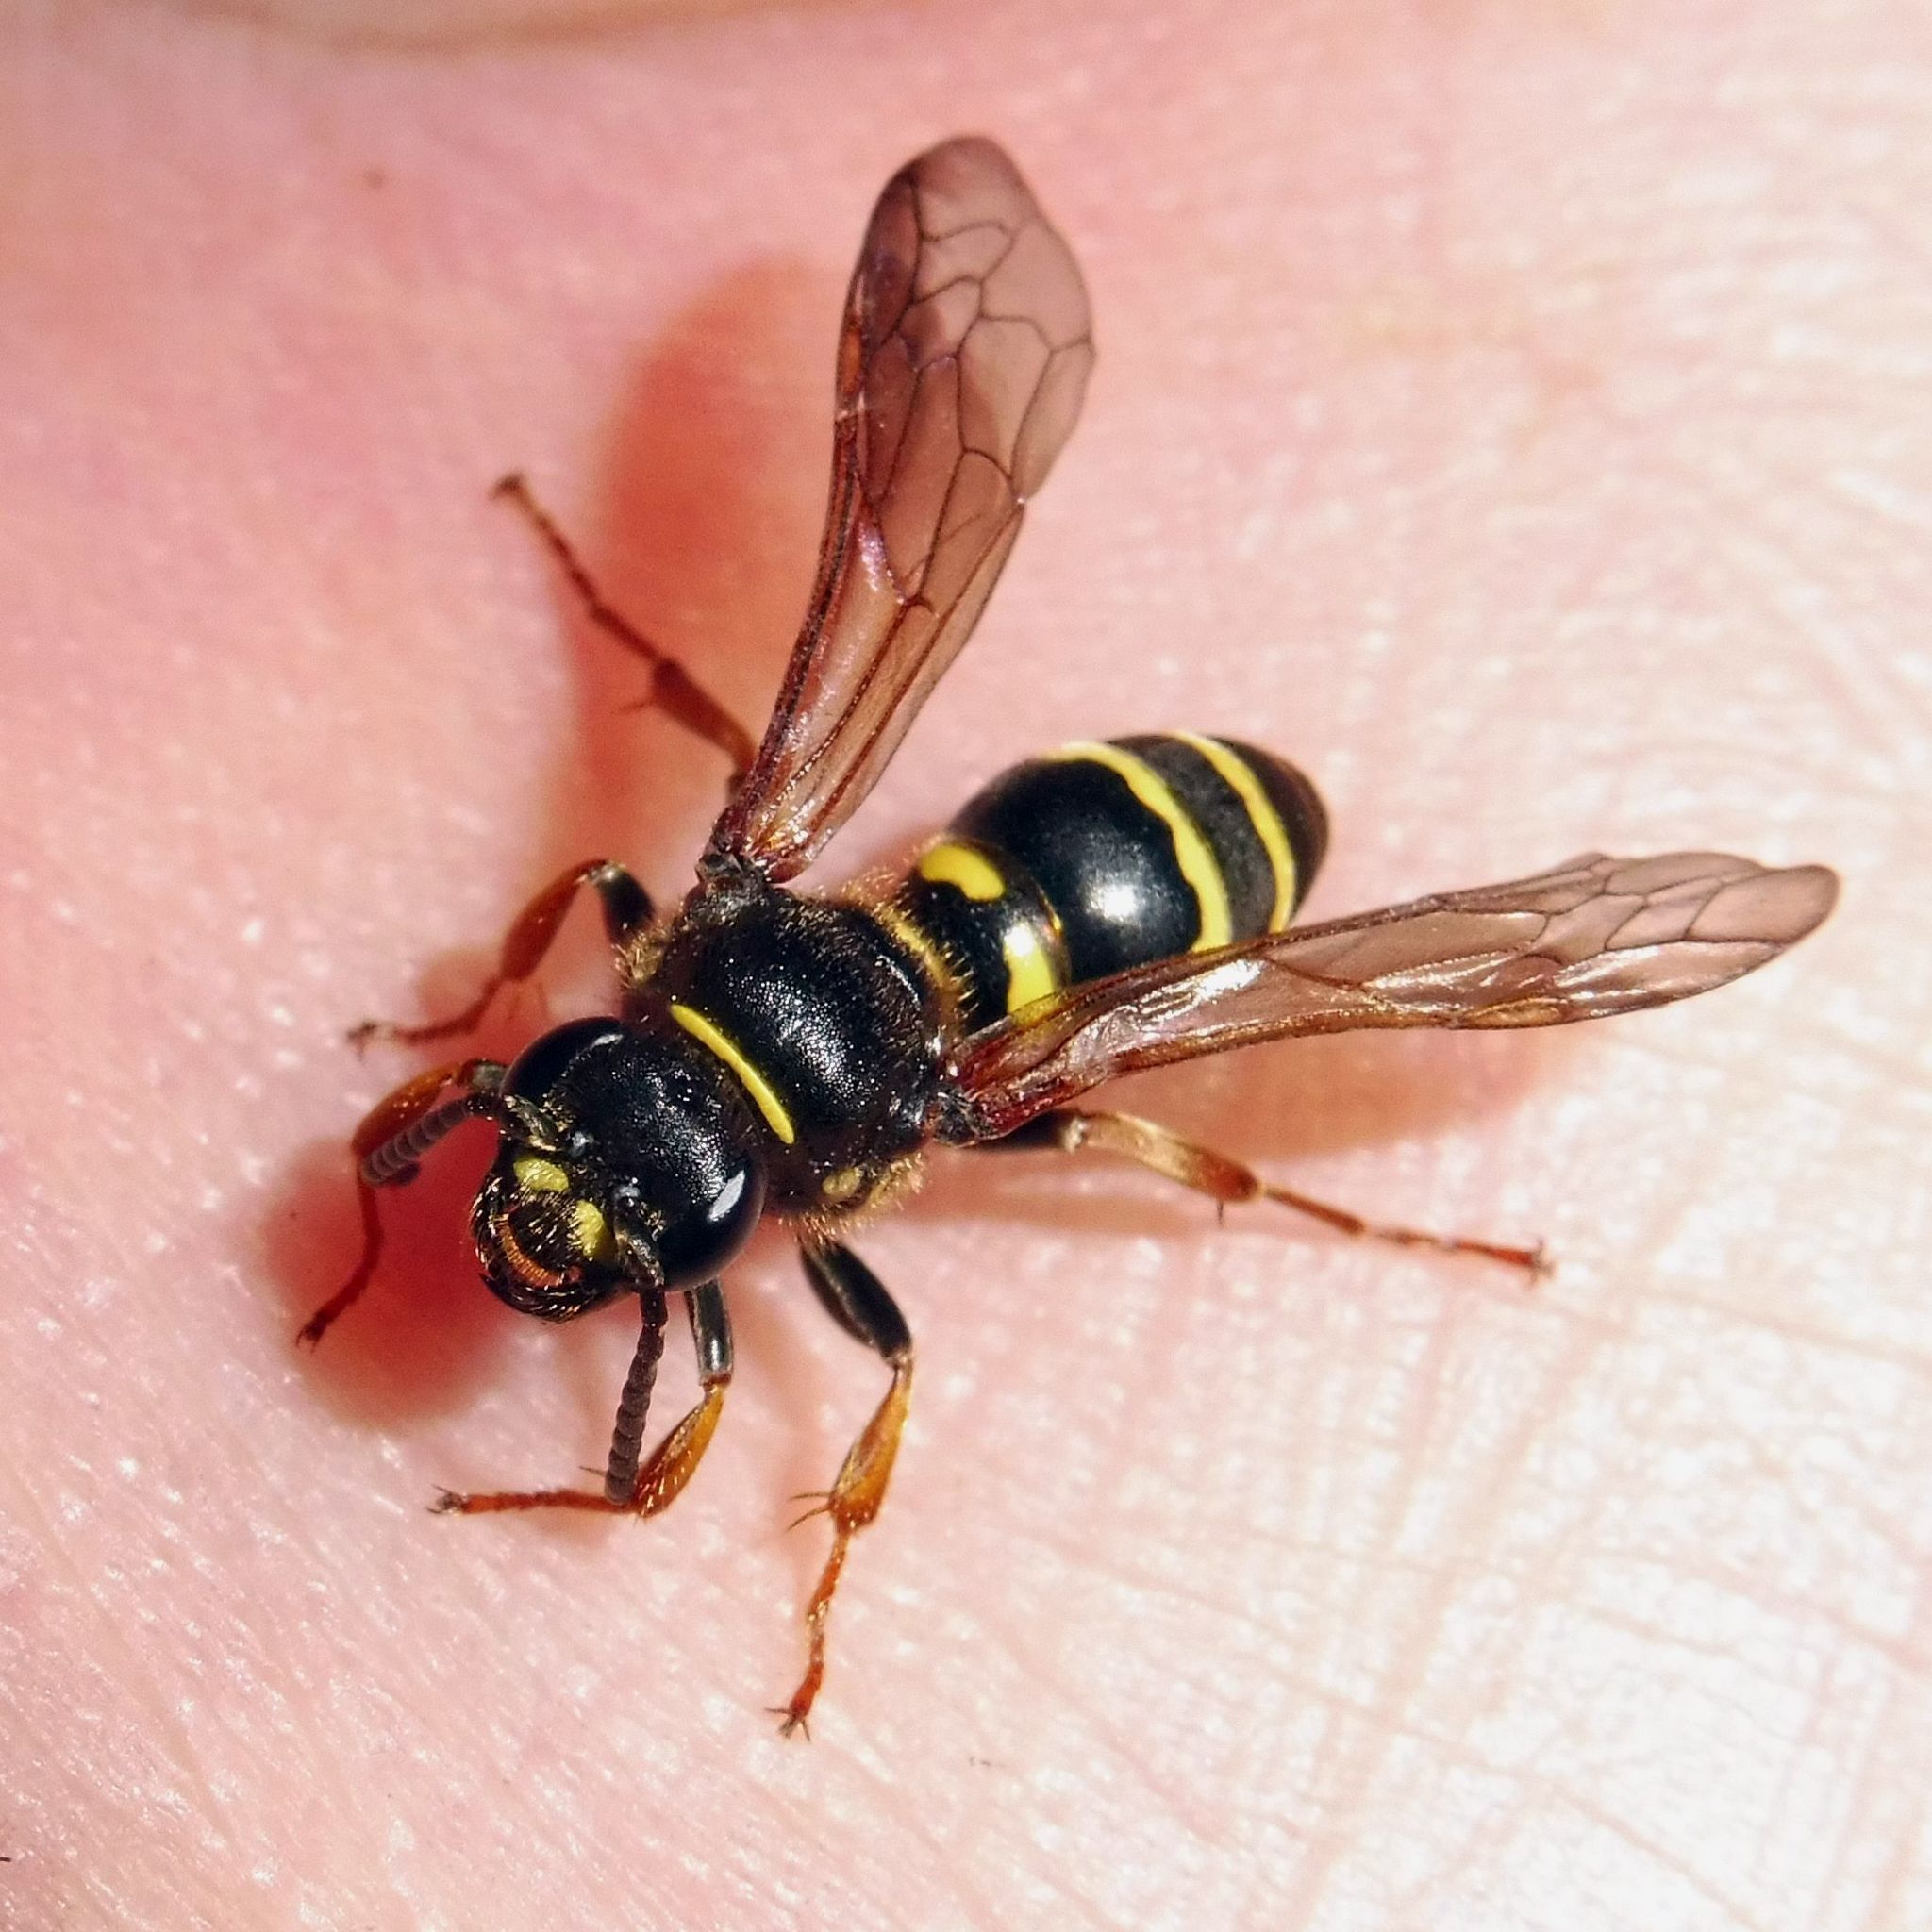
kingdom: Animalia
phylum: Arthropoda
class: Insecta
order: Hymenoptera
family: Crabronidae
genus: Argogorytes
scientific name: Argogorytes mystaceus
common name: Field digger wasp
